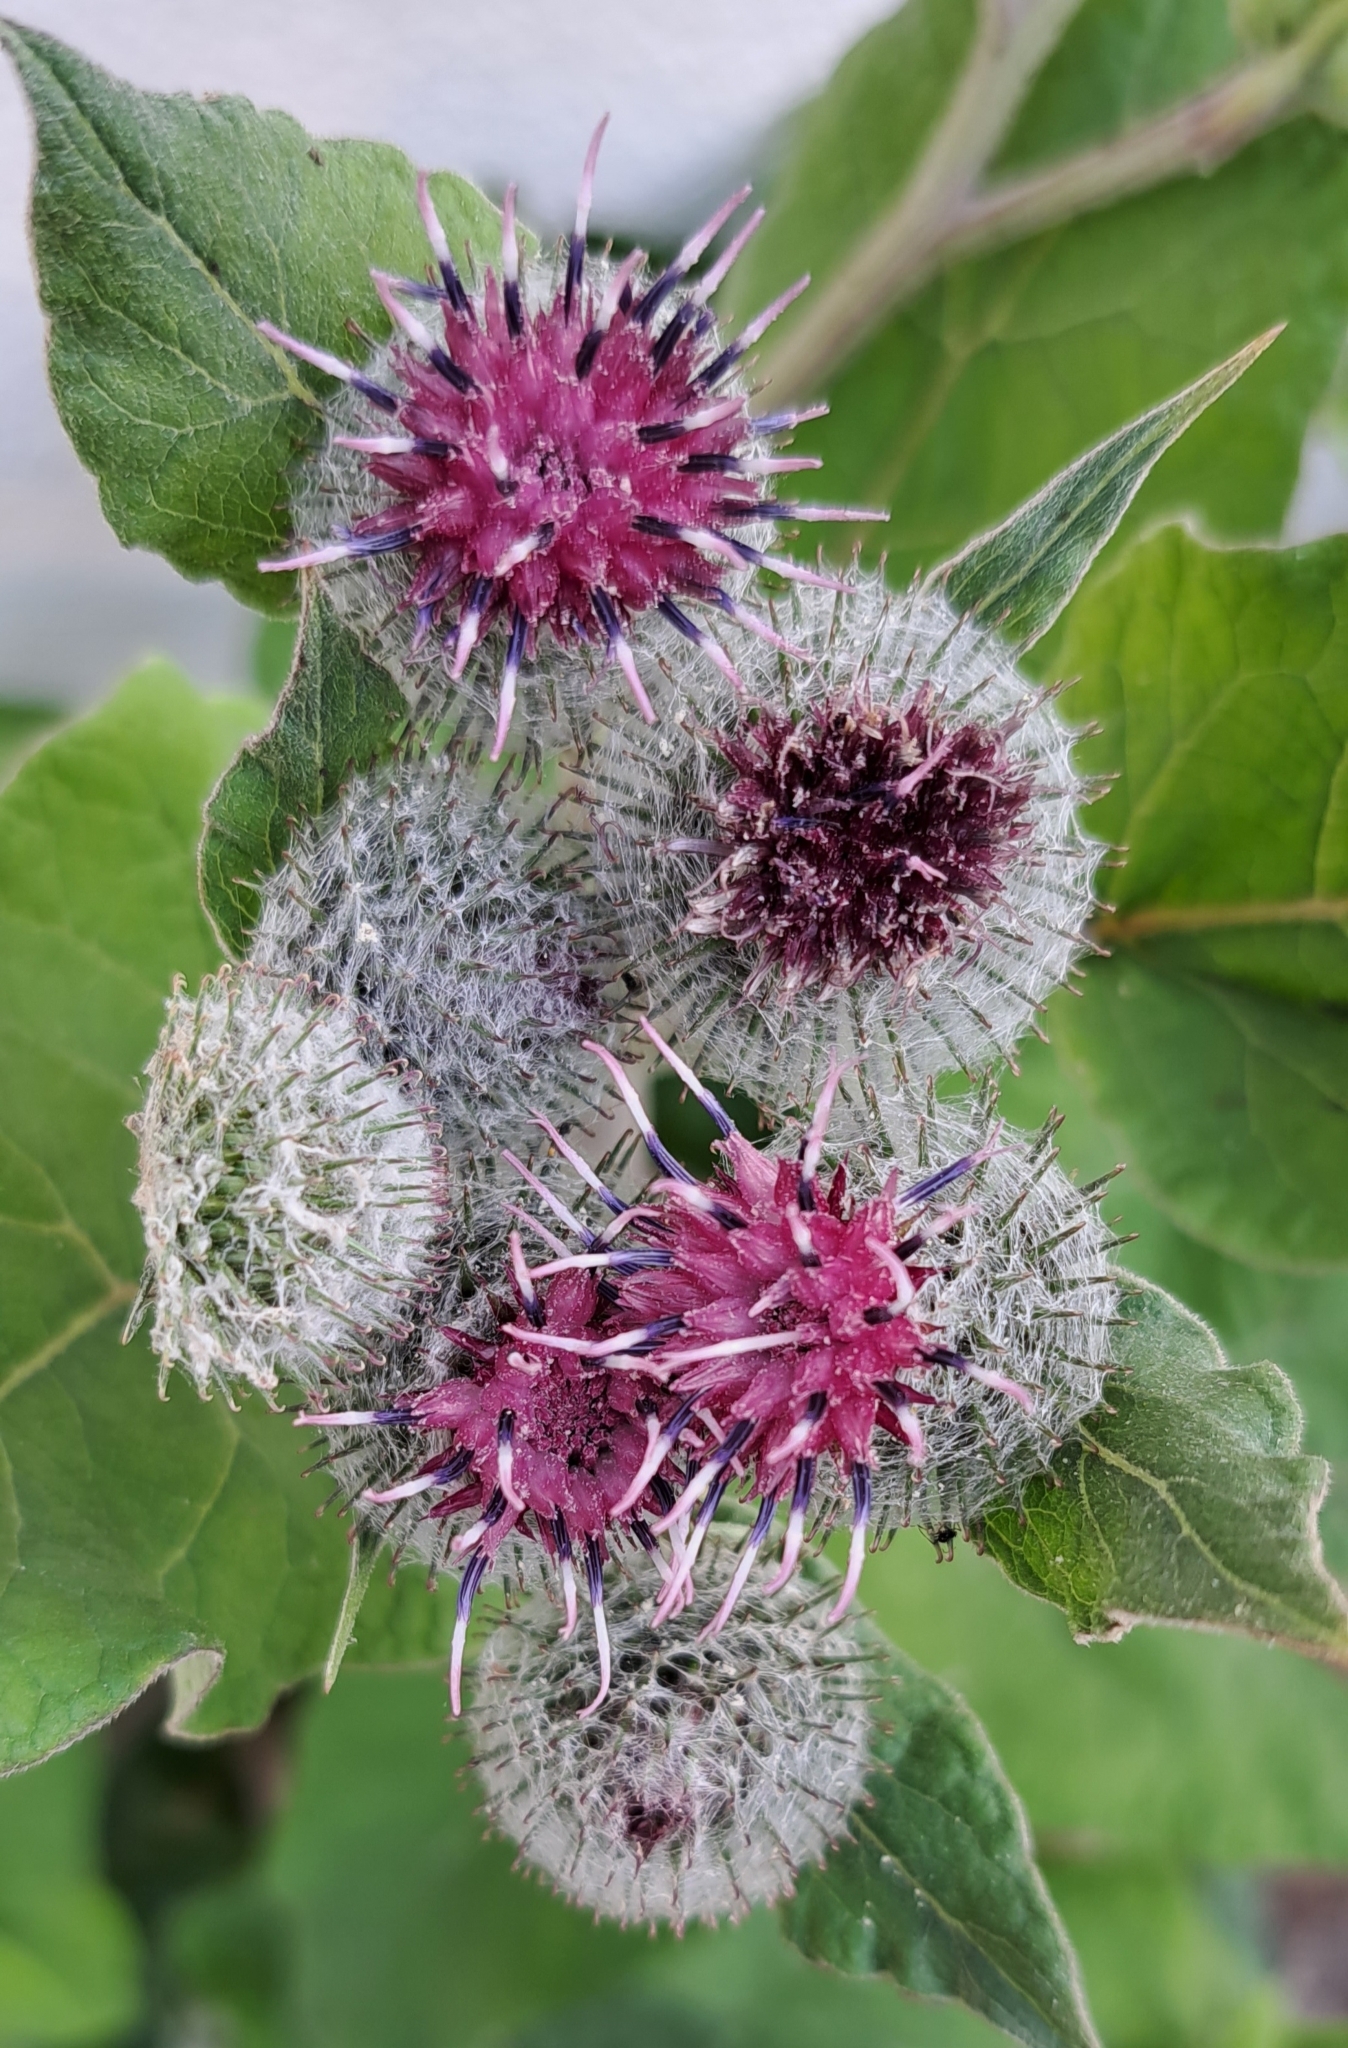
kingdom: Plantae
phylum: Tracheophyta
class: Magnoliopsida
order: Asterales
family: Asteraceae
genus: Arctium
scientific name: Arctium tomentosum
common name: Woolly burdock
